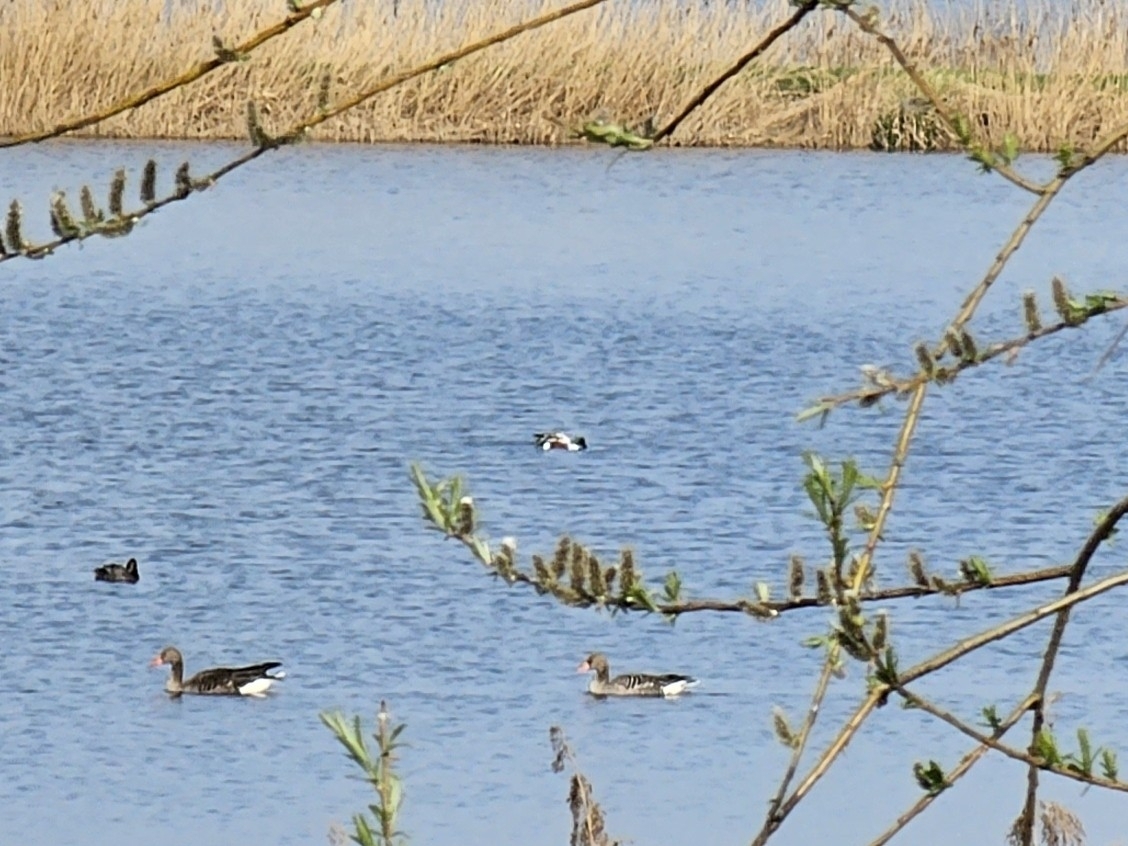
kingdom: Animalia
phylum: Chordata
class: Aves
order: Anseriformes
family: Anatidae
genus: Spatula
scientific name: Spatula clypeata
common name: Northern shoveler
